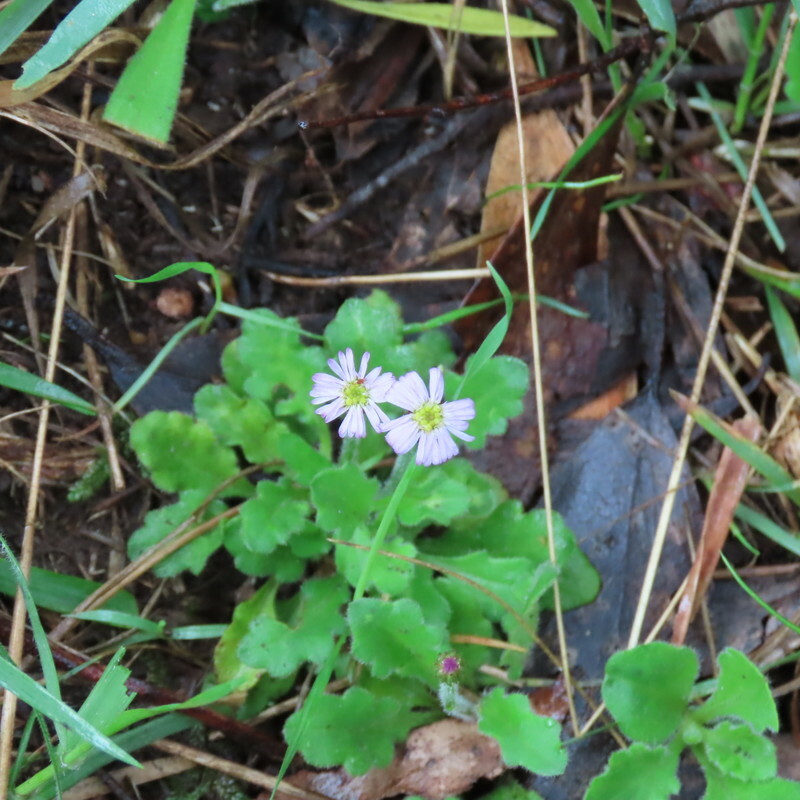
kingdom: Plantae
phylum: Tracheophyta
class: Magnoliopsida
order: Asterales
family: Asteraceae
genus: Lagenophora
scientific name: Lagenophora stipitata
